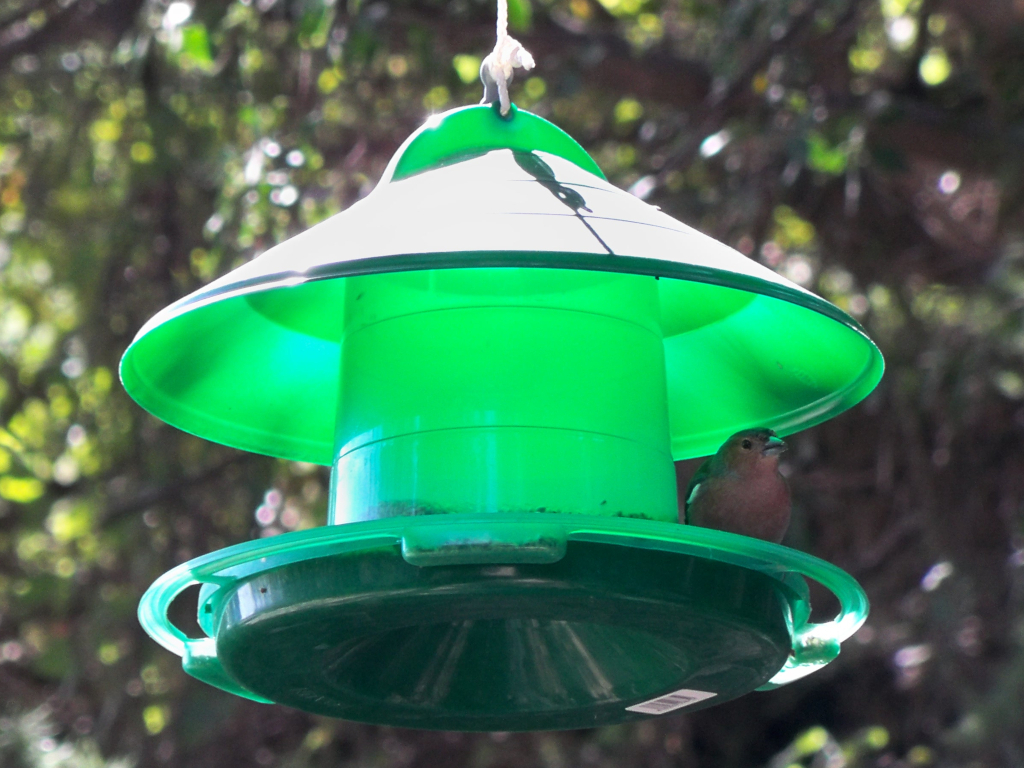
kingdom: Animalia
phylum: Chordata
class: Aves
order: Passeriformes
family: Fringillidae
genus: Fringilla
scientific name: Fringilla coelebs
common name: Common chaffinch
